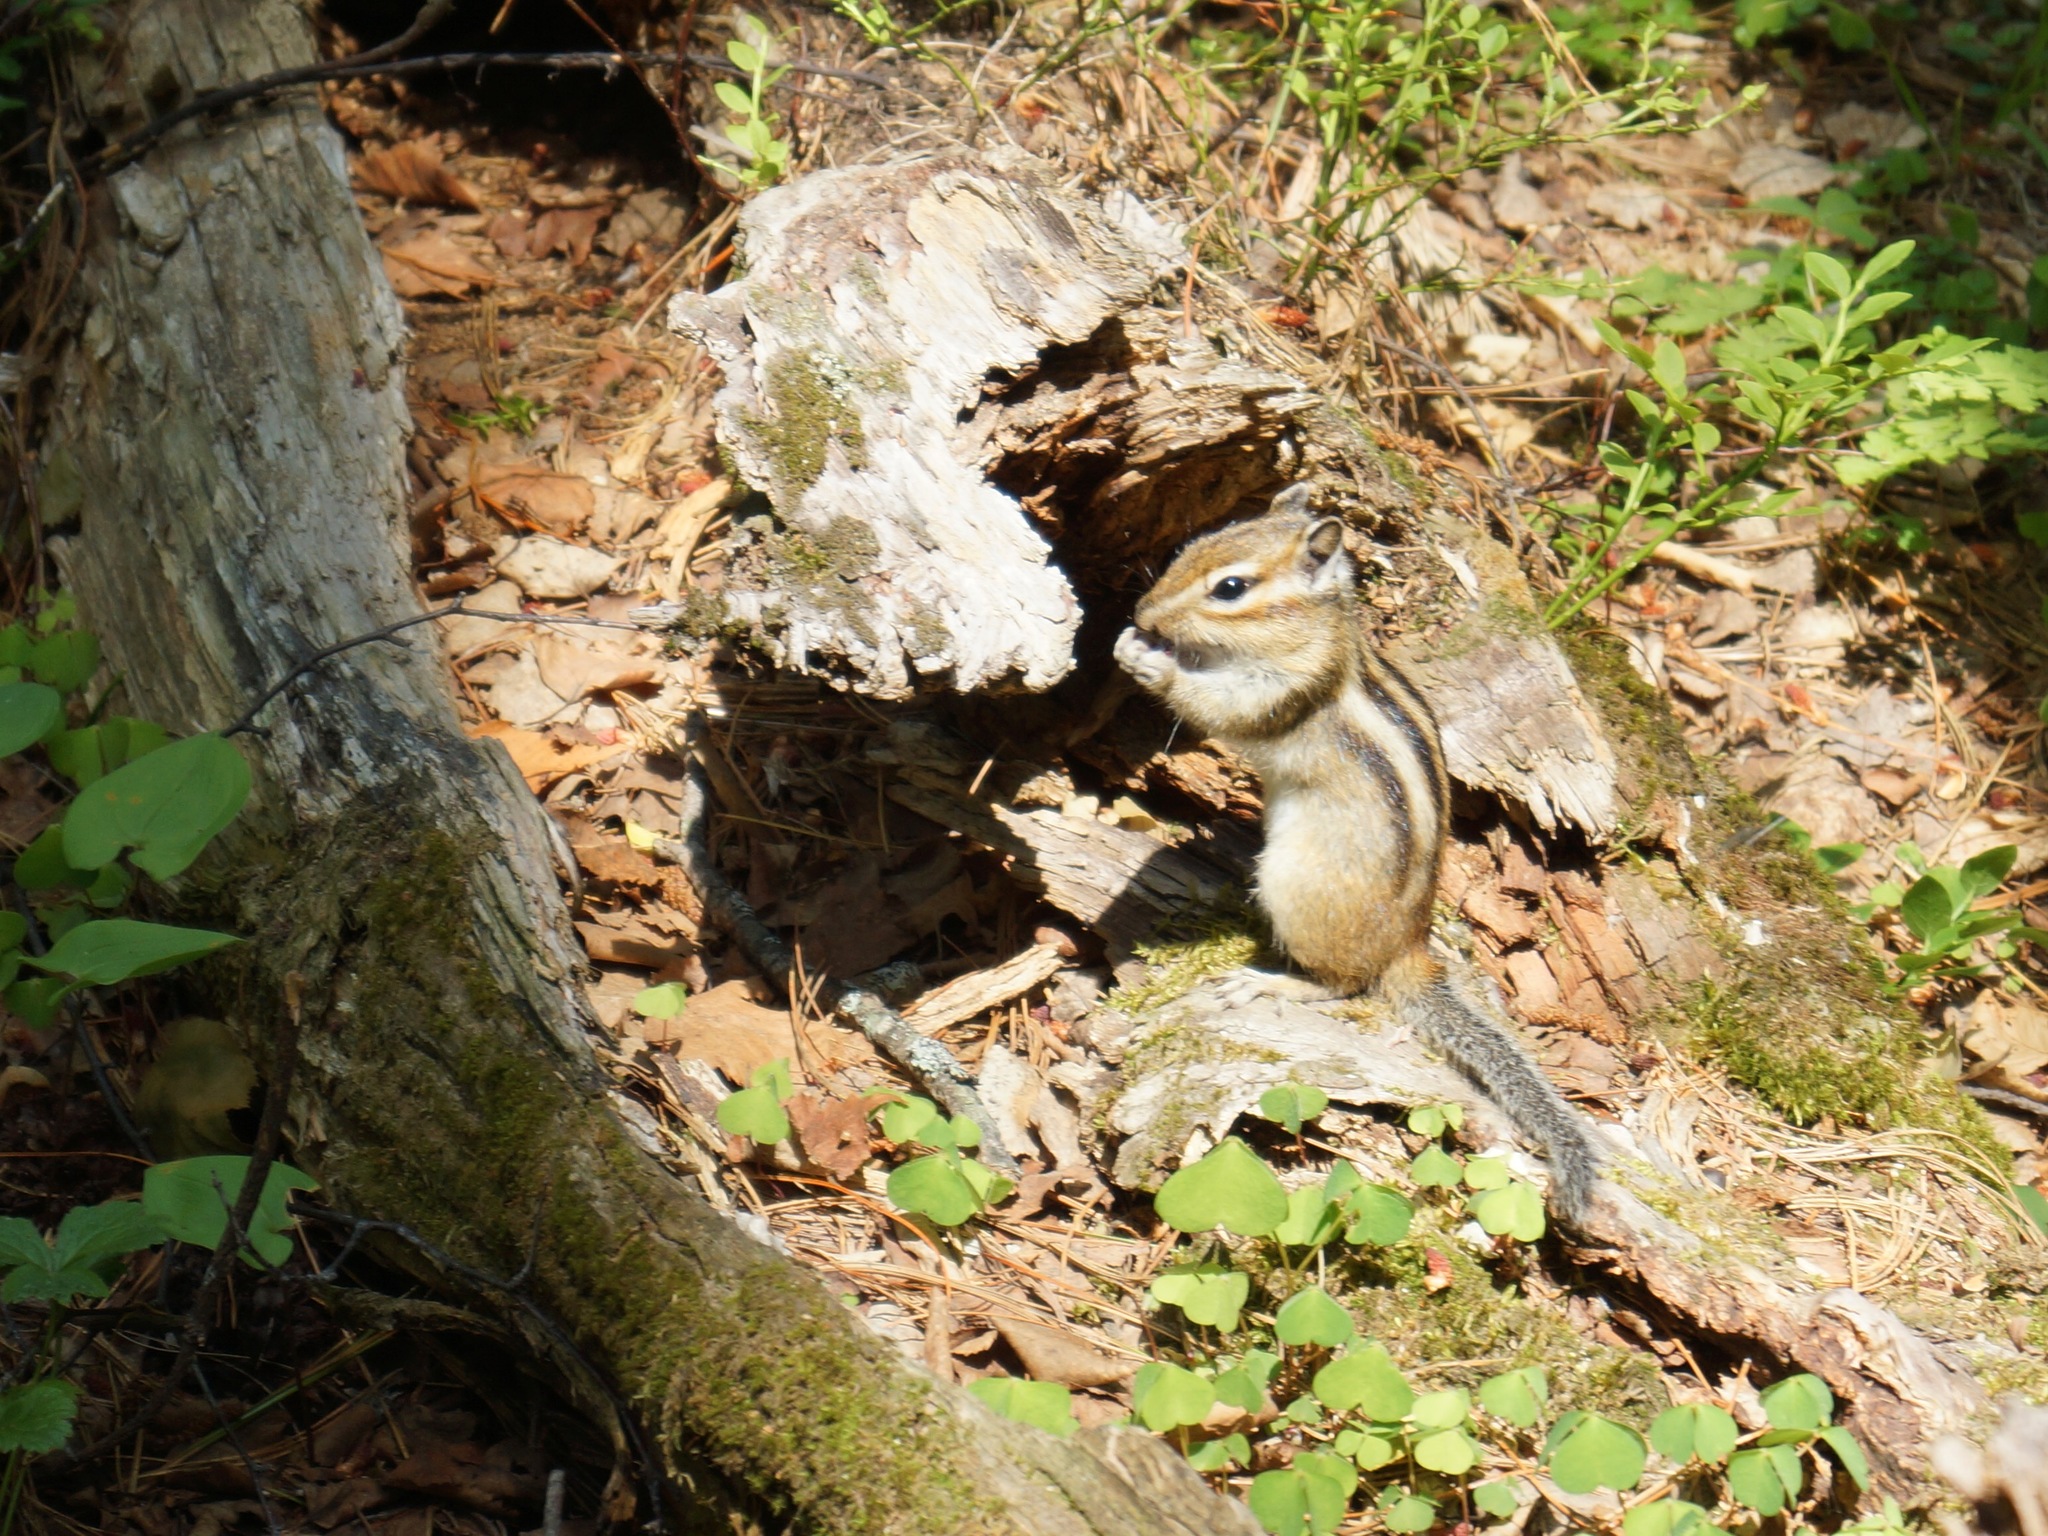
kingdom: Animalia
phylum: Chordata
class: Mammalia
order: Rodentia
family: Sciuridae
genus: Tamias
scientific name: Tamias sibiricus
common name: Siberian chipmunk
